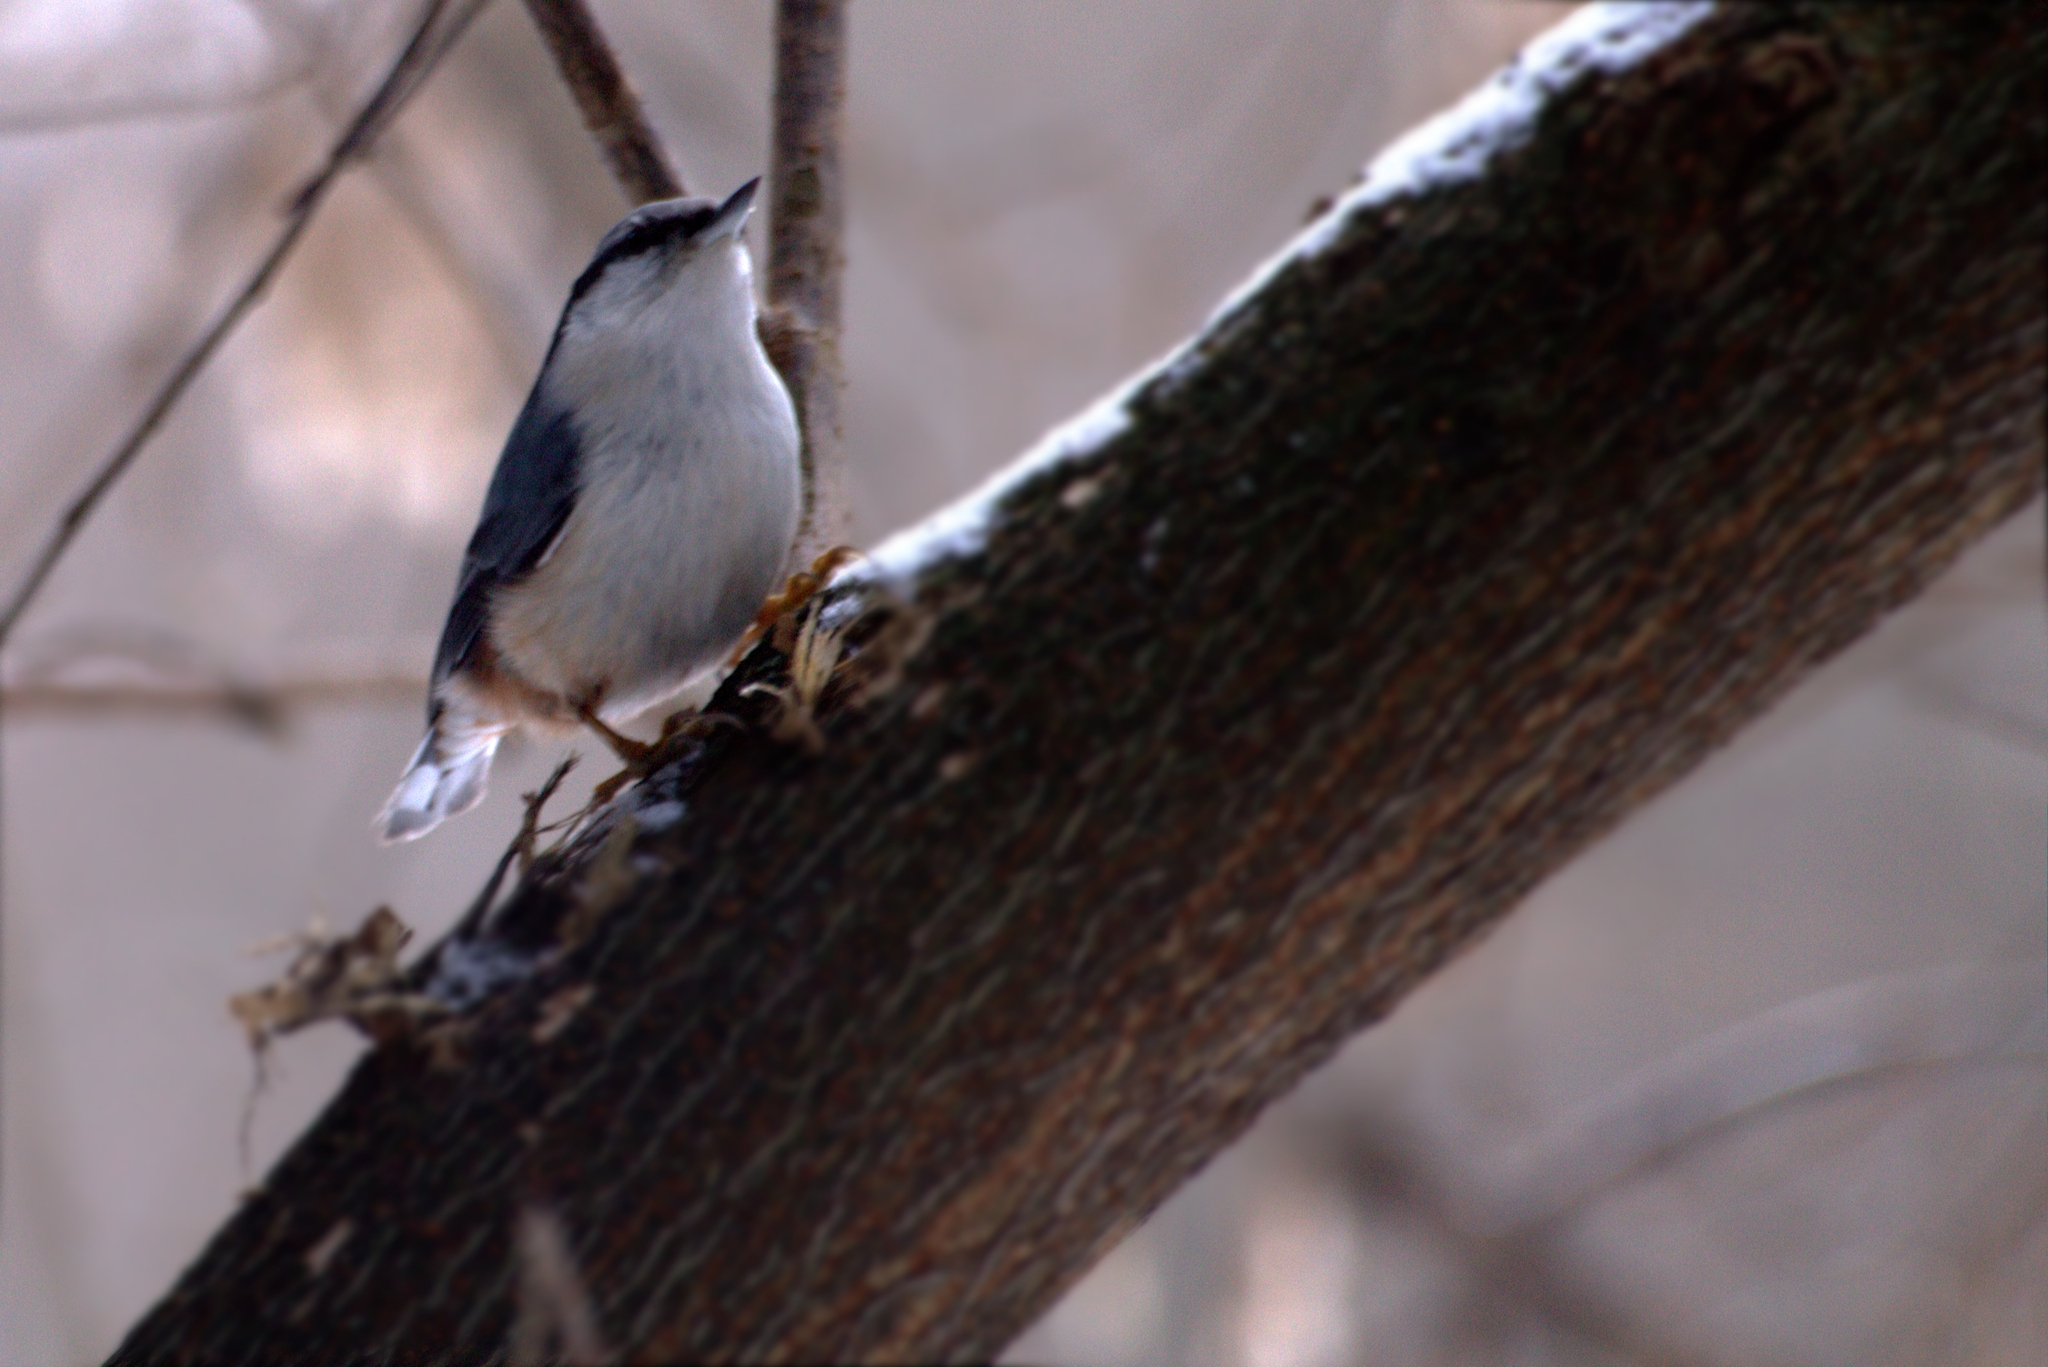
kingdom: Animalia
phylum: Chordata
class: Aves
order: Passeriformes
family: Sittidae
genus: Sitta
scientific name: Sitta europaea
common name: Eurasian nuthatch
